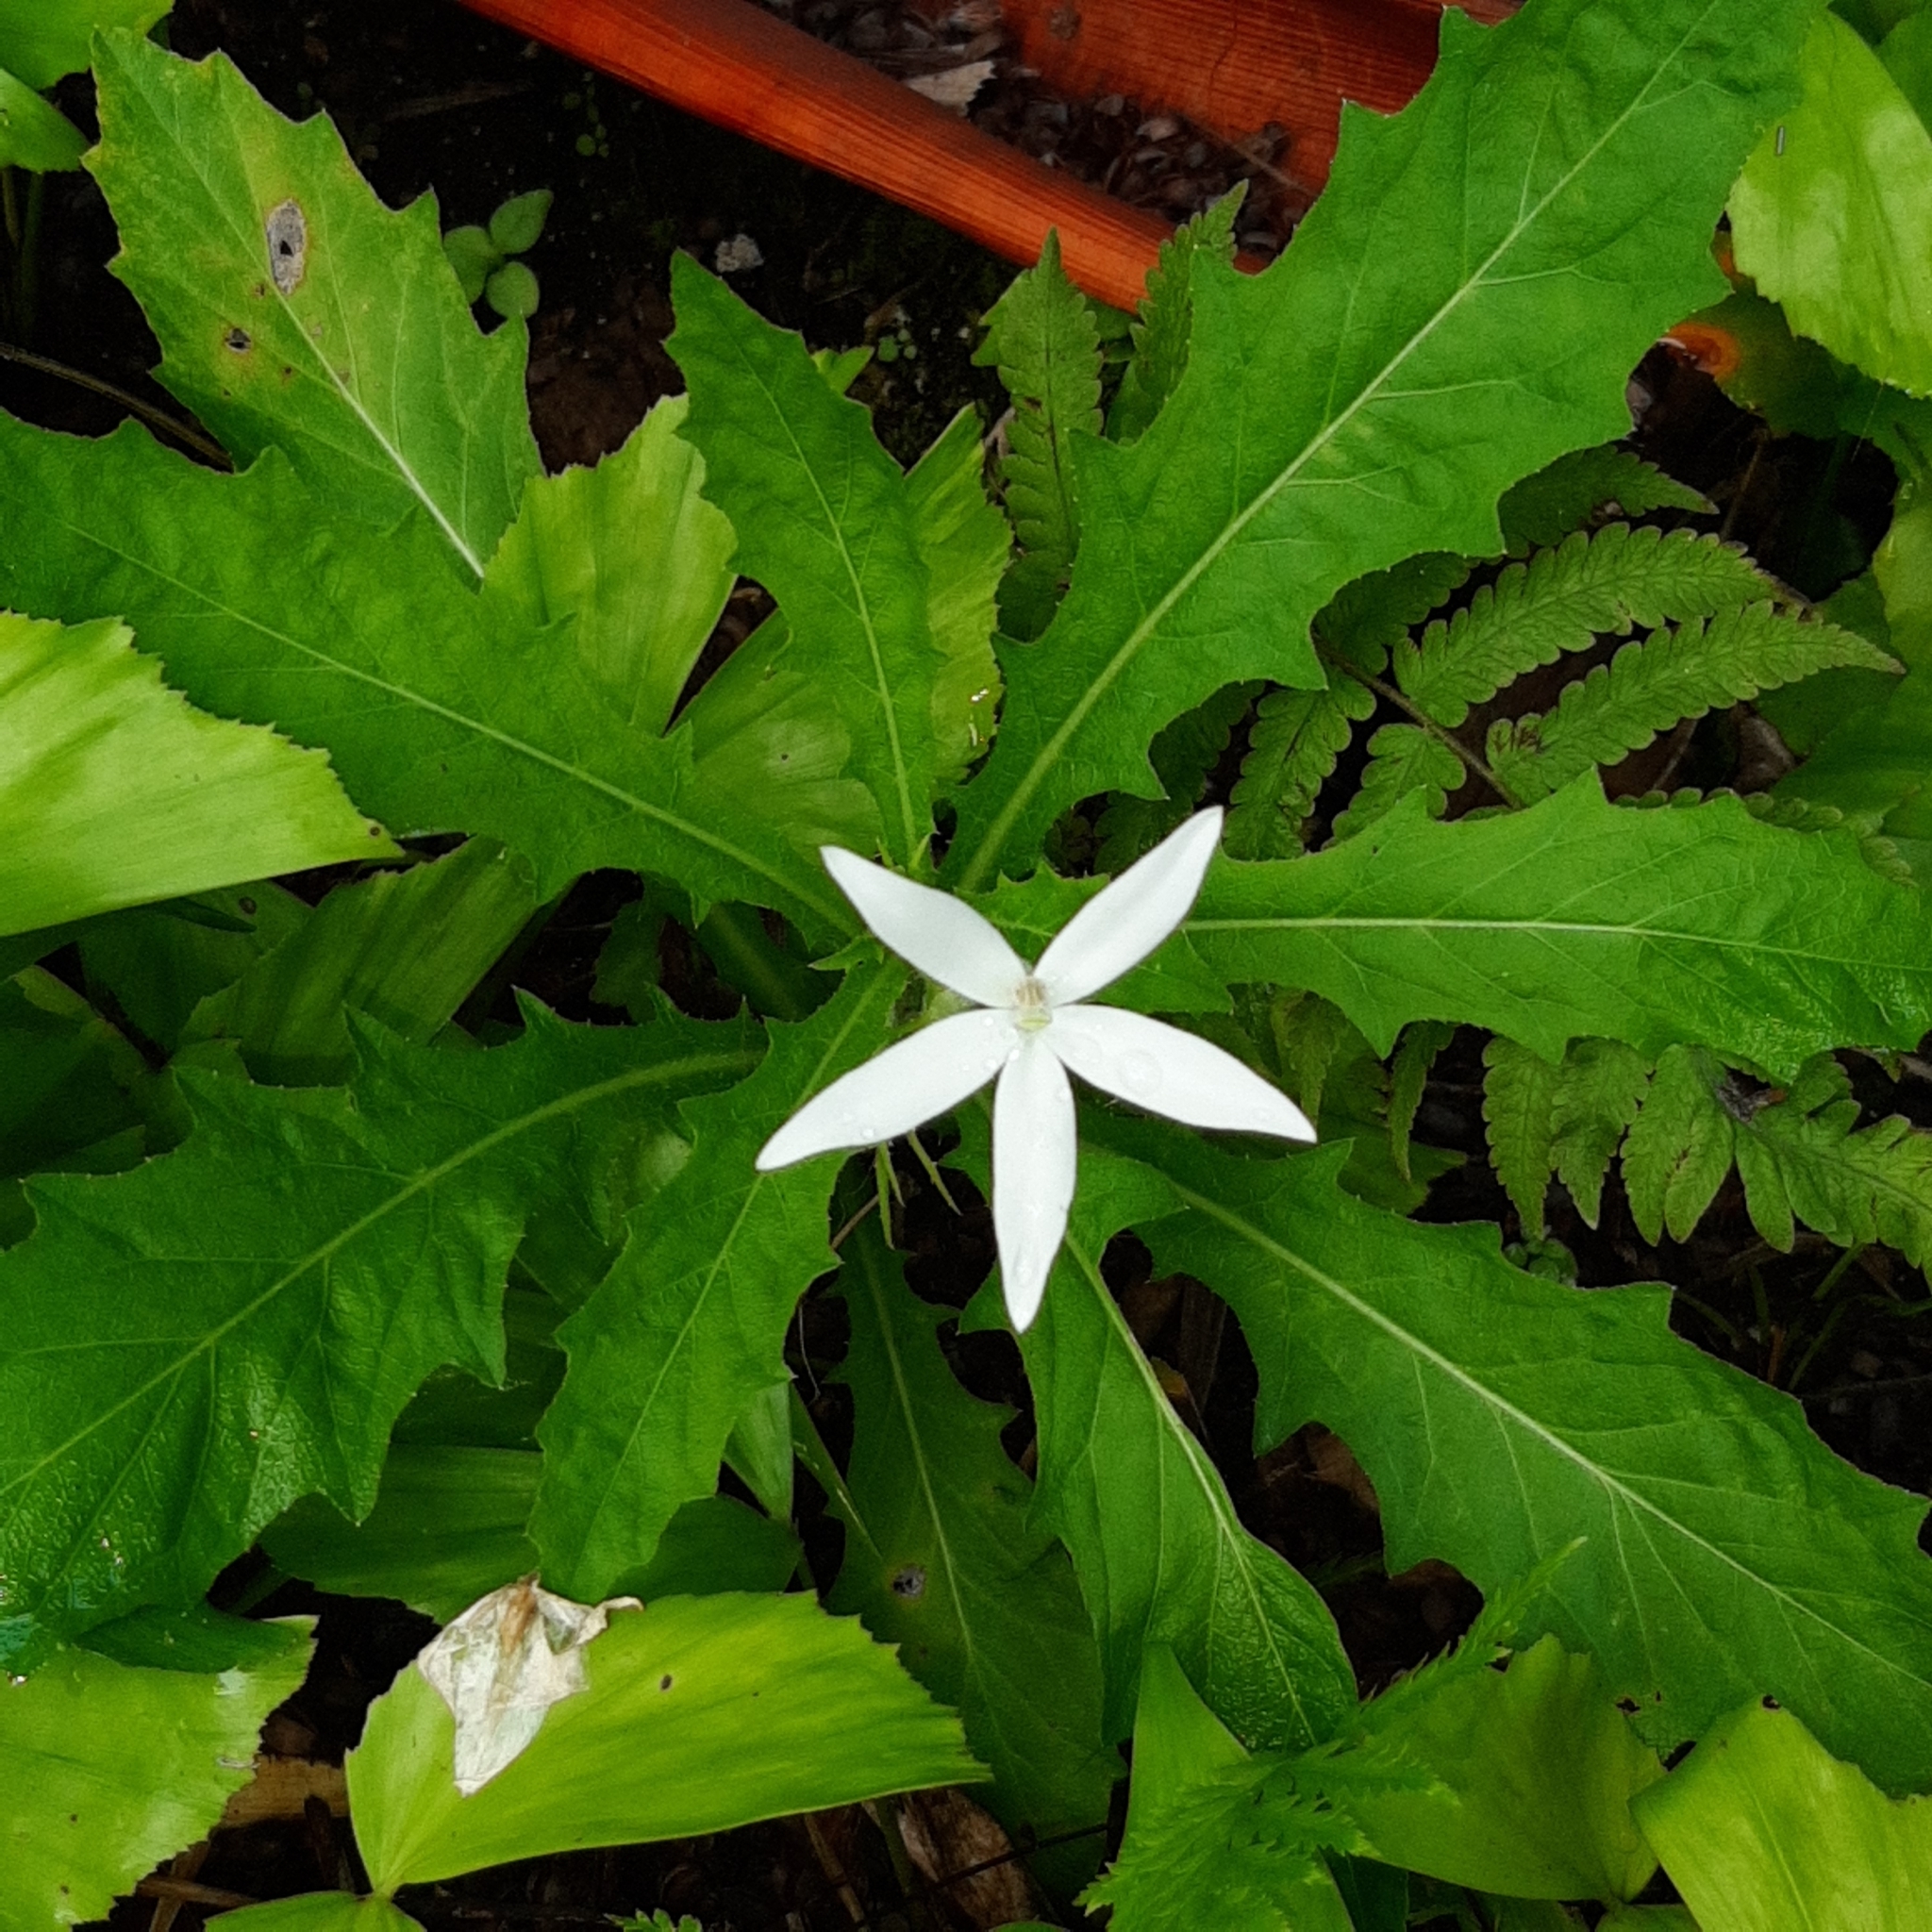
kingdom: Plantae
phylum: Tracheophyta
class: Magnoliopsida
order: Asterales
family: Campanulaceae
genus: Hippobroma
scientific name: Hippobroma longiflora
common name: Madamfate
